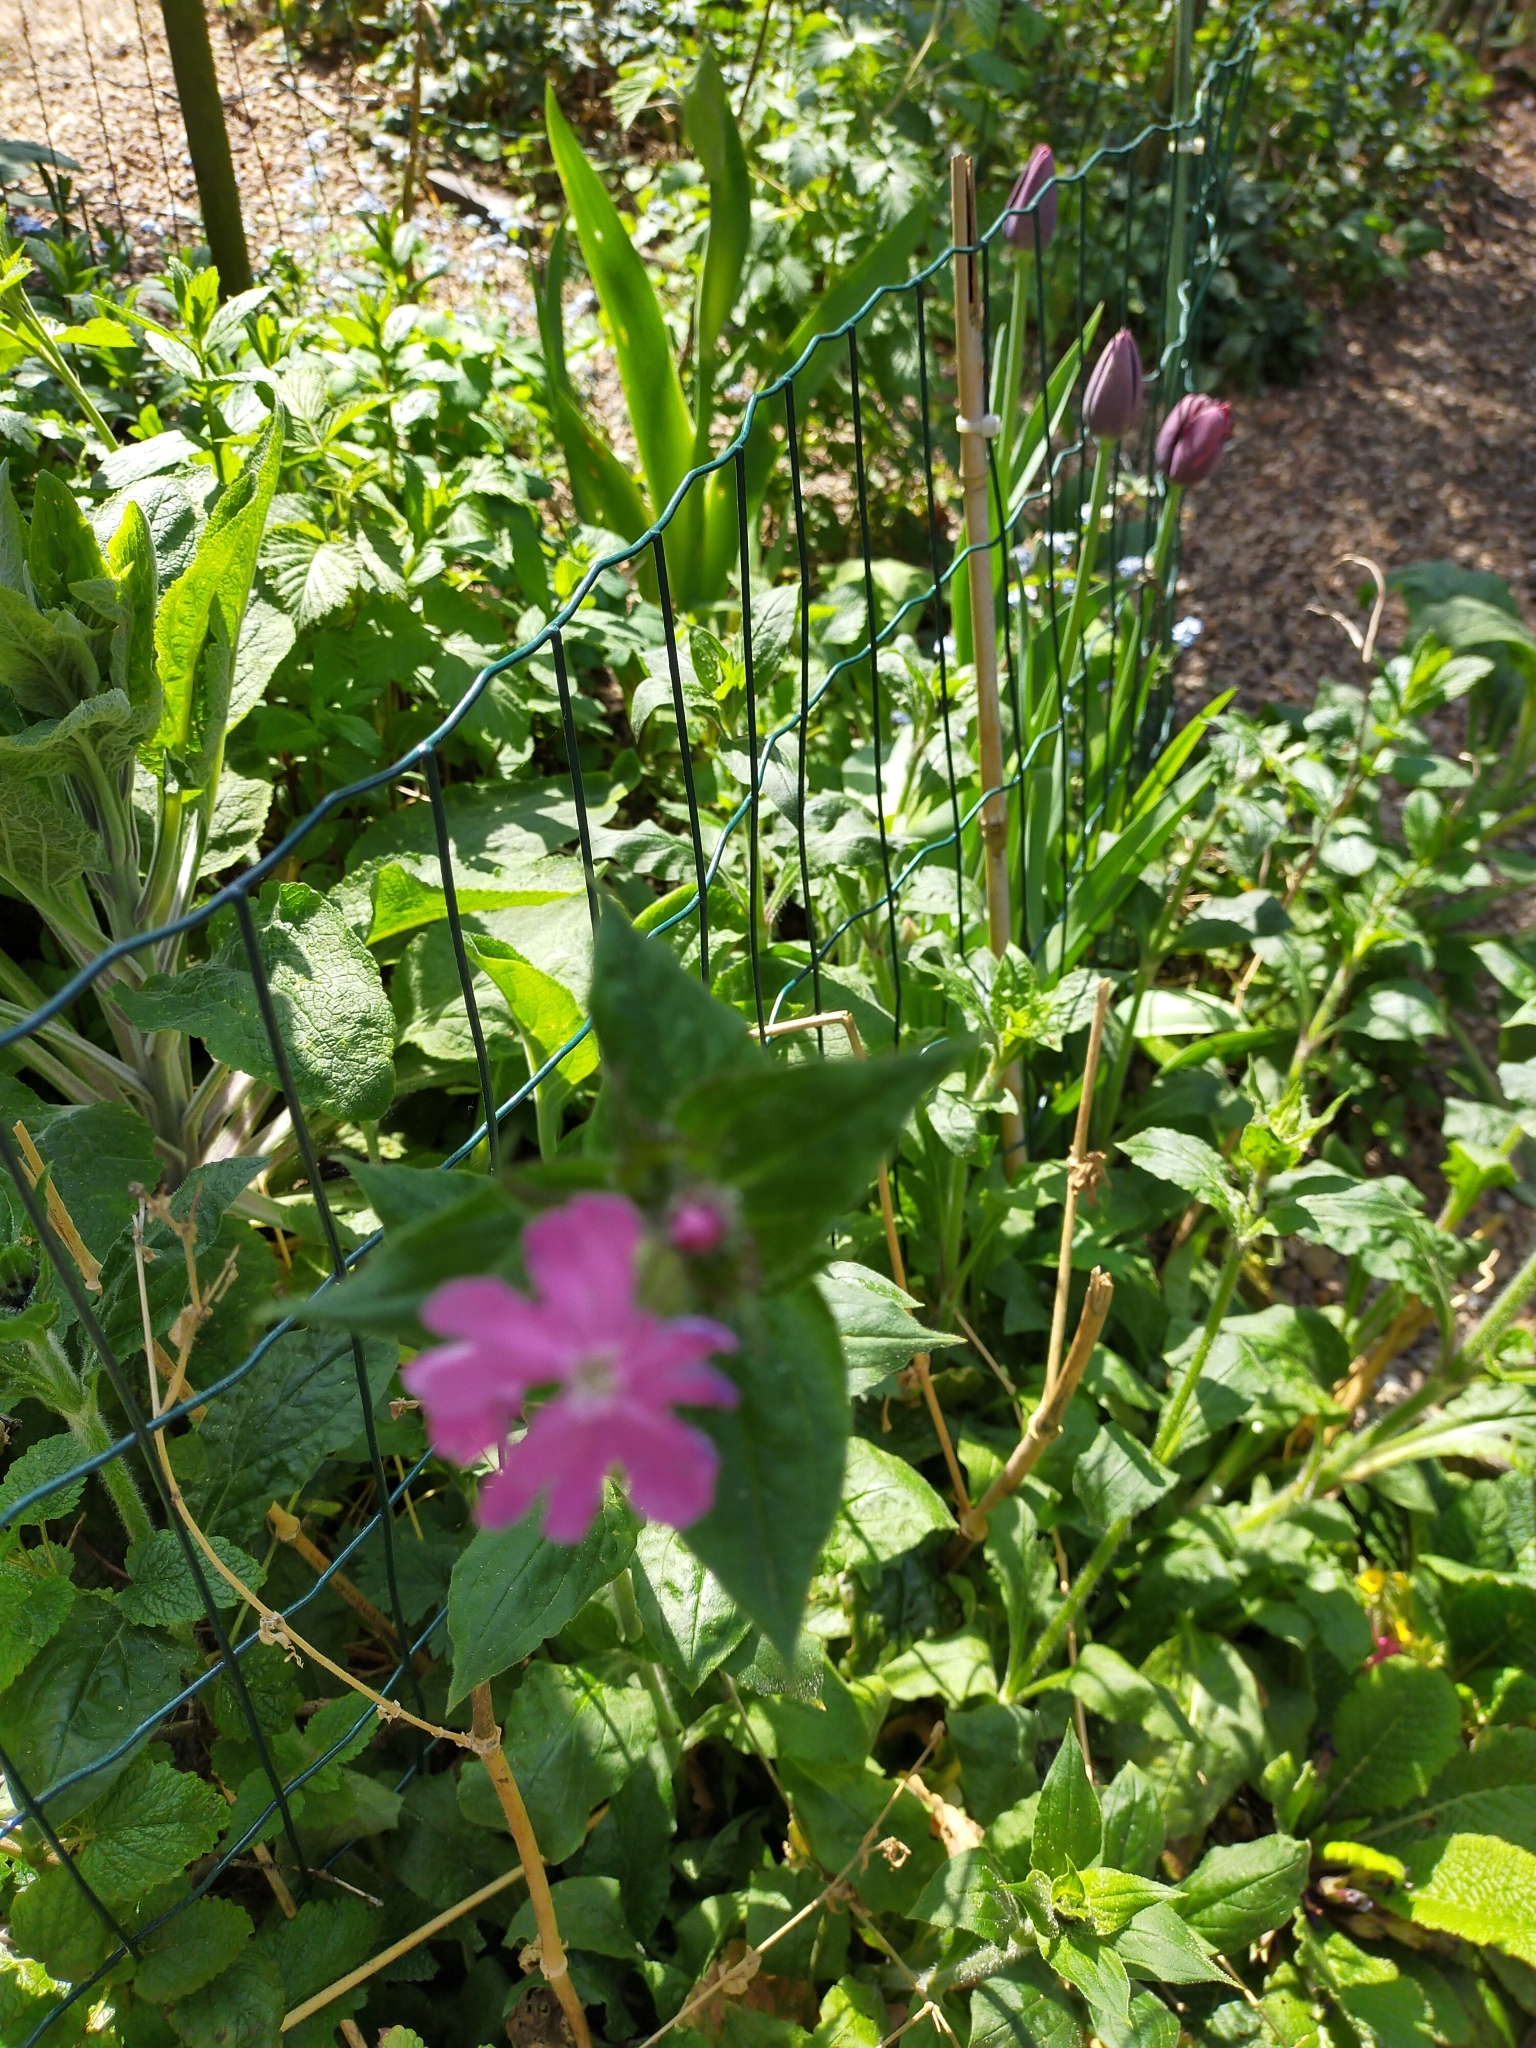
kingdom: Plantae
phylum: Tracheophyta
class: Magnoliopsida
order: Caryophyllales
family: Caryophyllaceae
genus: Silene
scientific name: Silene dioica
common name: Red campion
